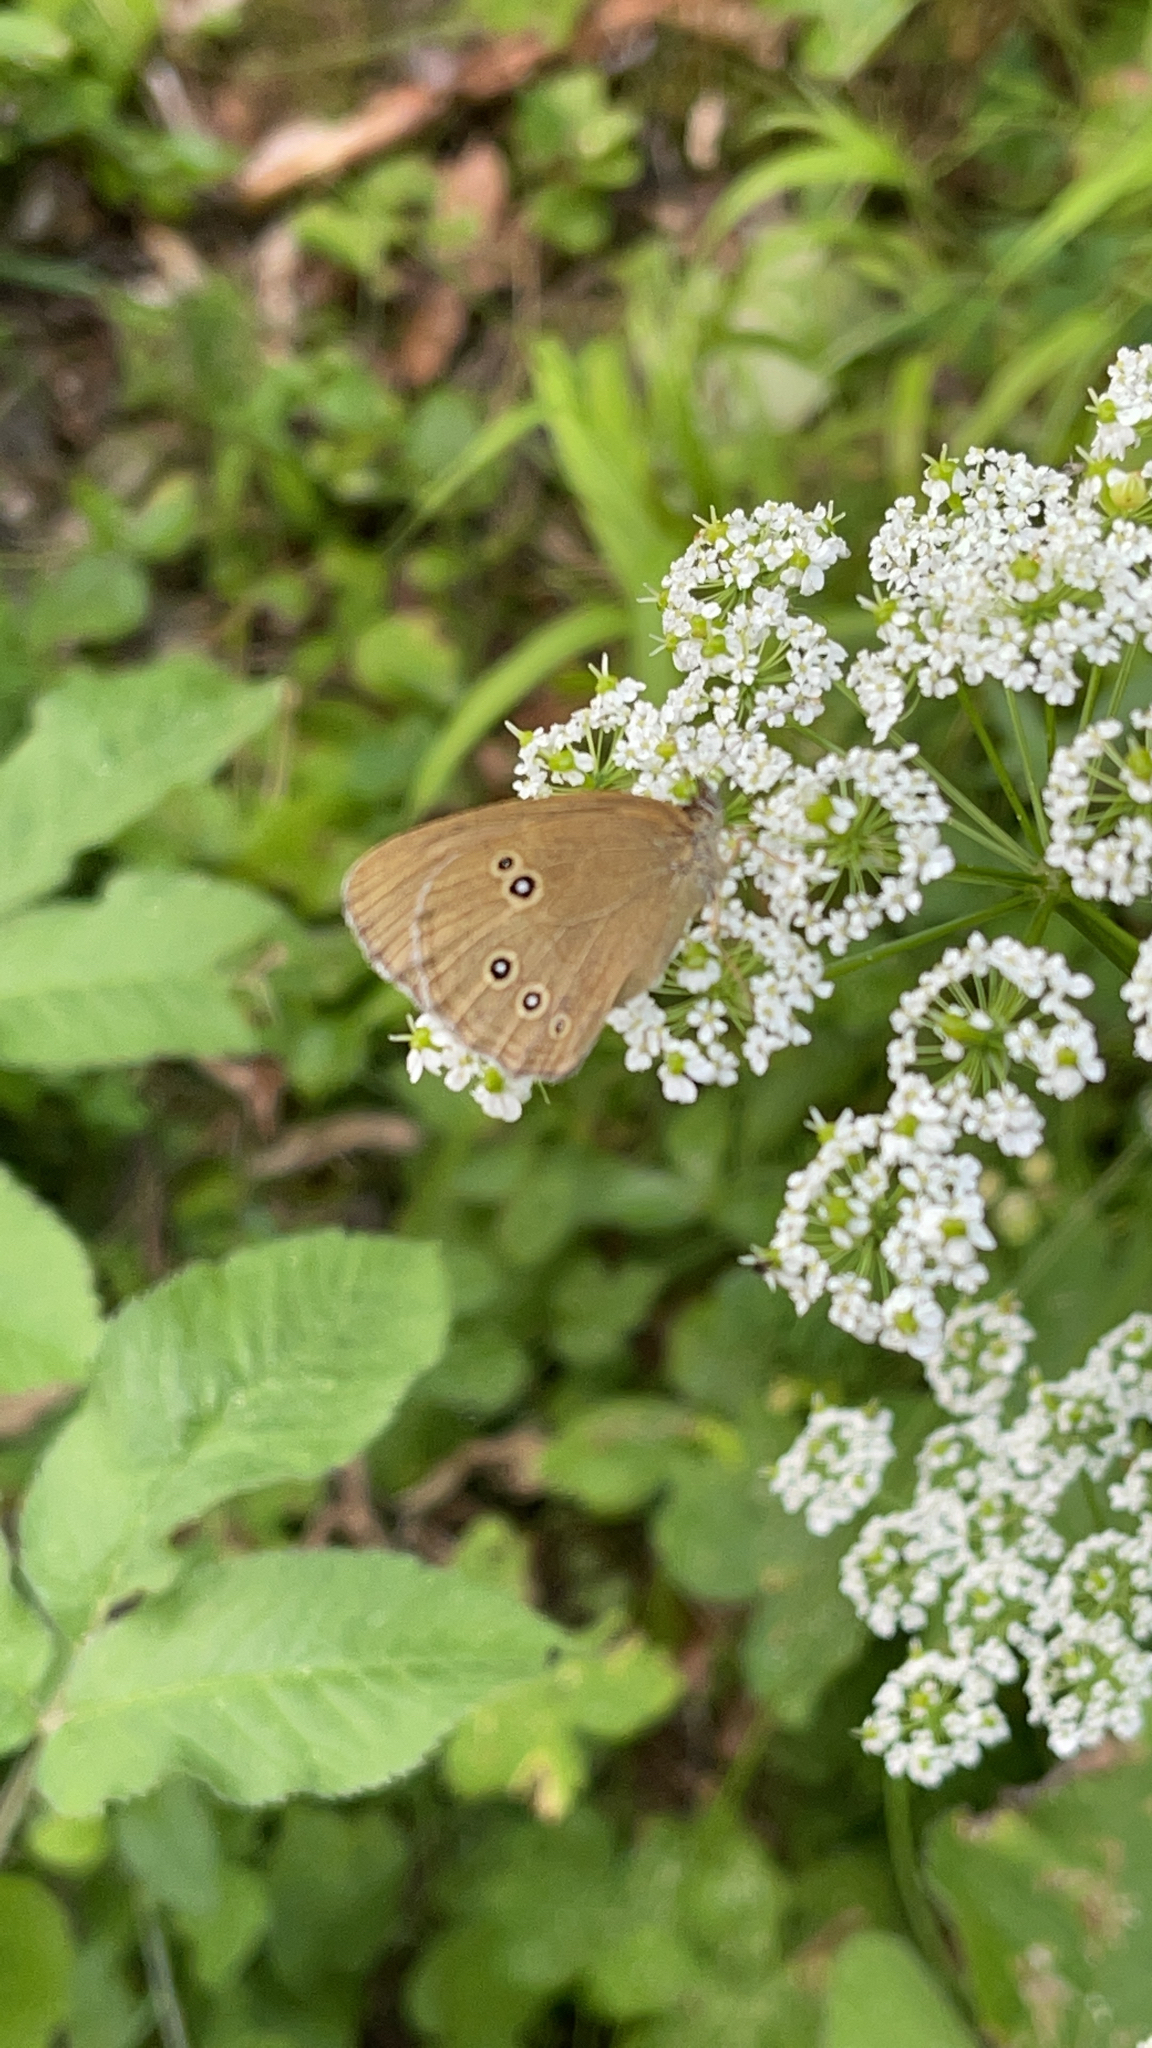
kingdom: Animalia
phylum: Arthropoda
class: Insecta
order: Lepidoptera
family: Nymphalidae
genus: Aphantopus
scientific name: Aphantopus hyperantus
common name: Ringlet
